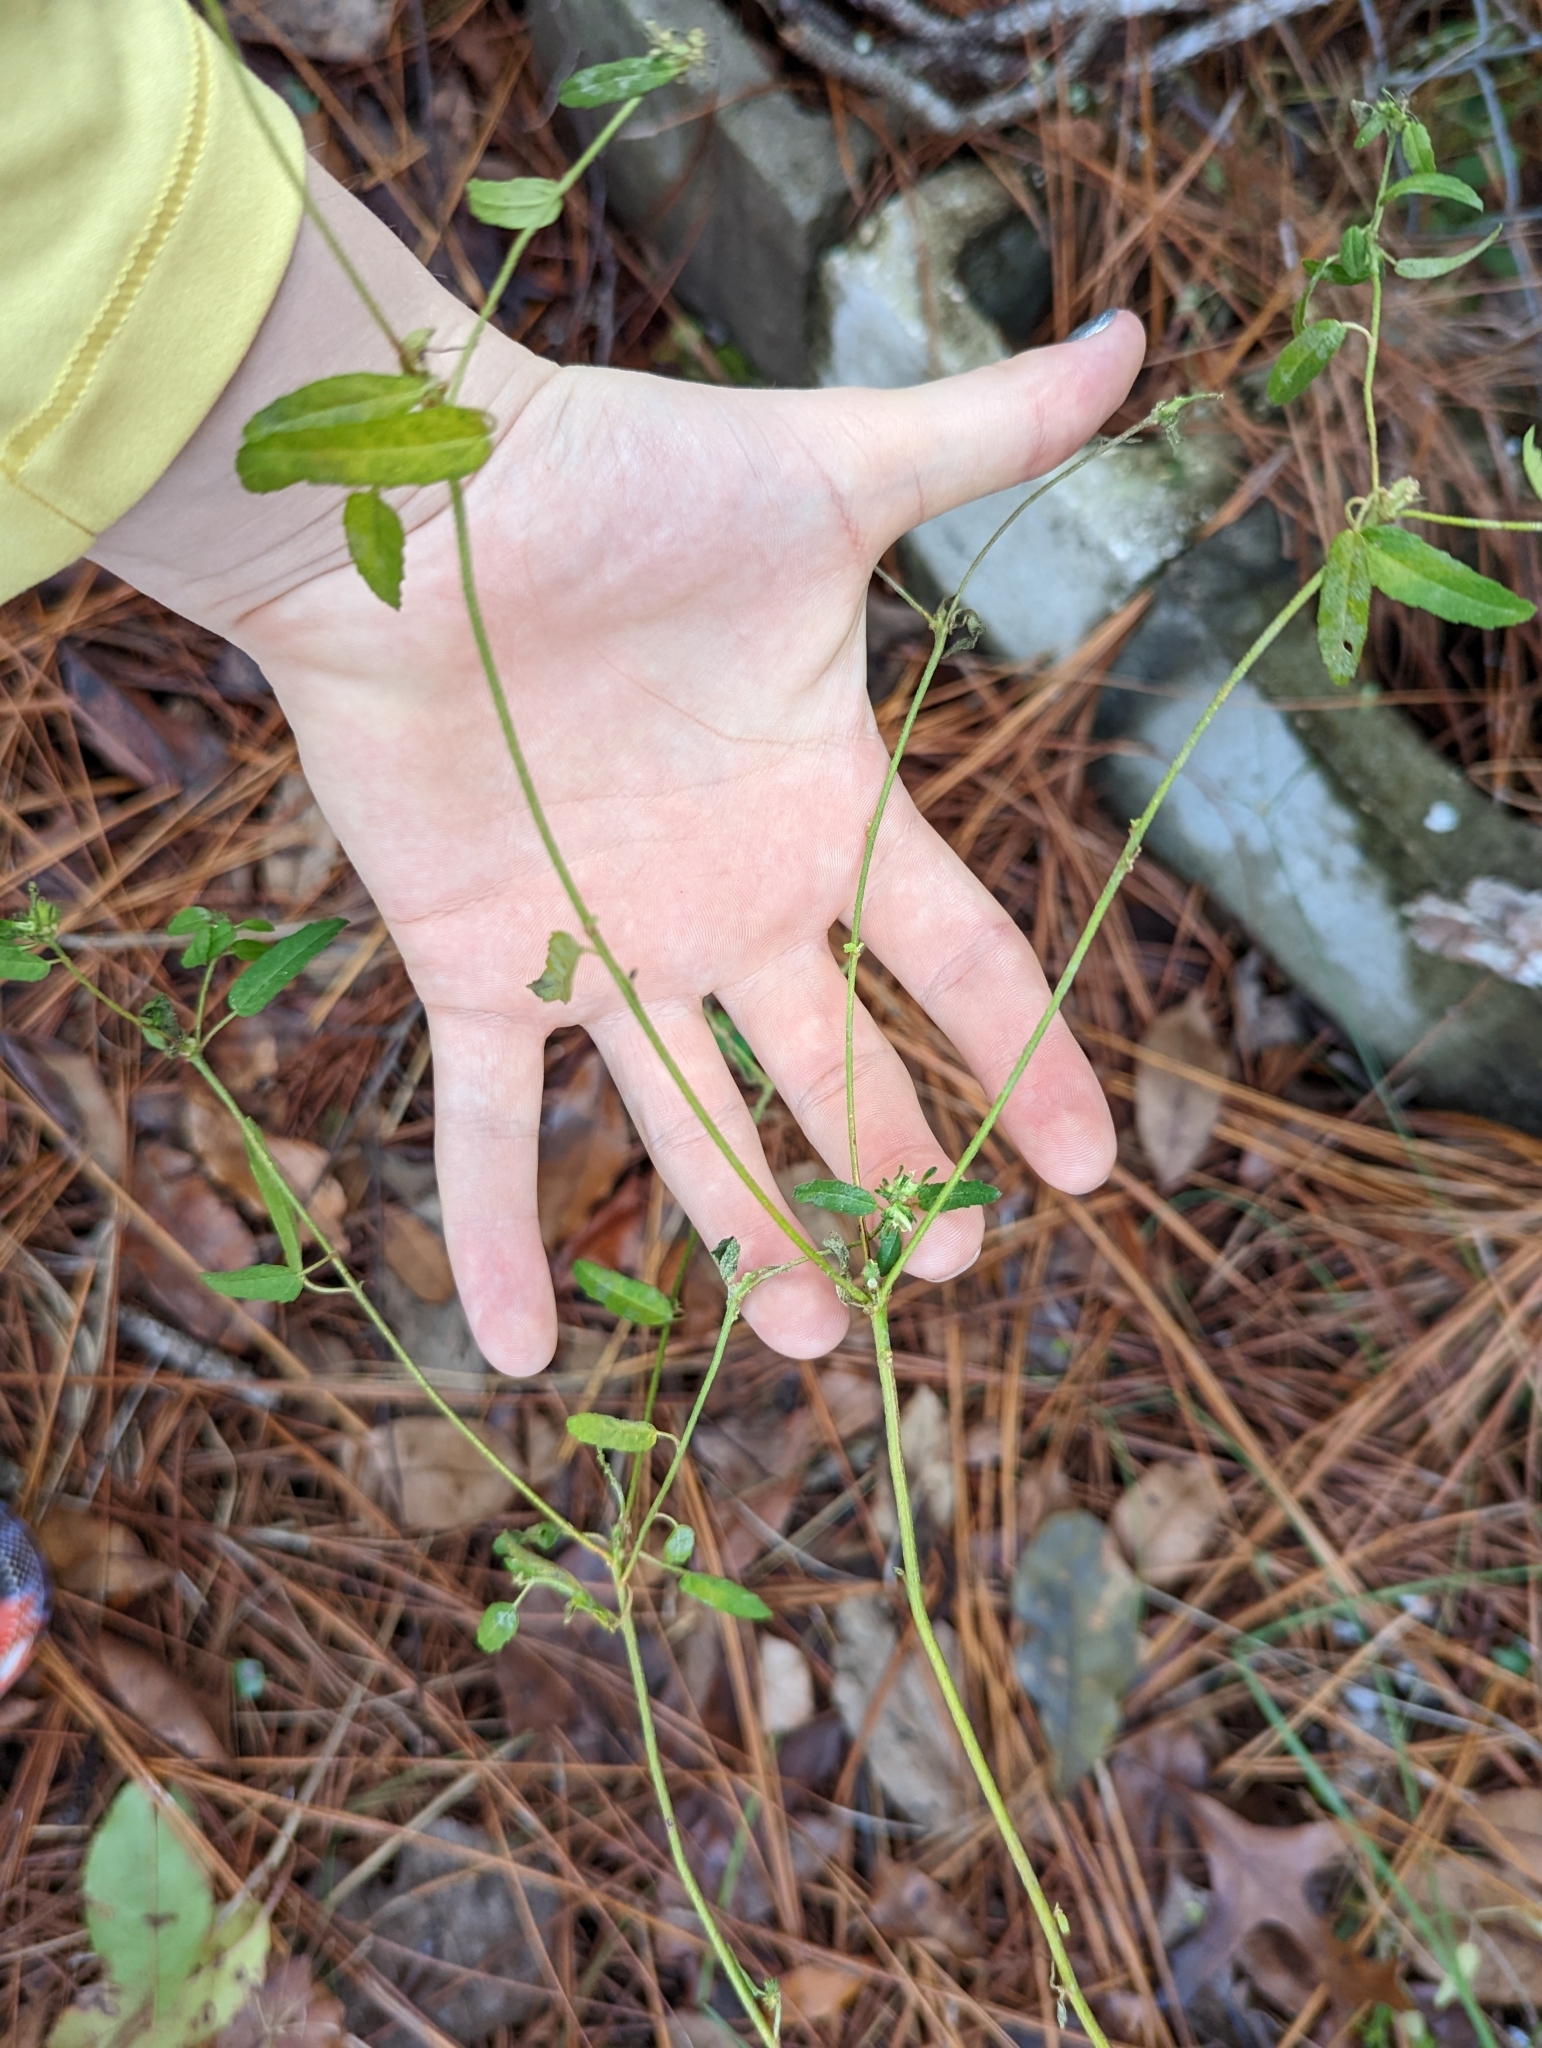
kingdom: Plantae
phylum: Tracheophyta
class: Magnoliopsida
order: Malpighiales
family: Euphorbiaceae
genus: Croton
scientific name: Croton glandulosus
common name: Tropic croton
